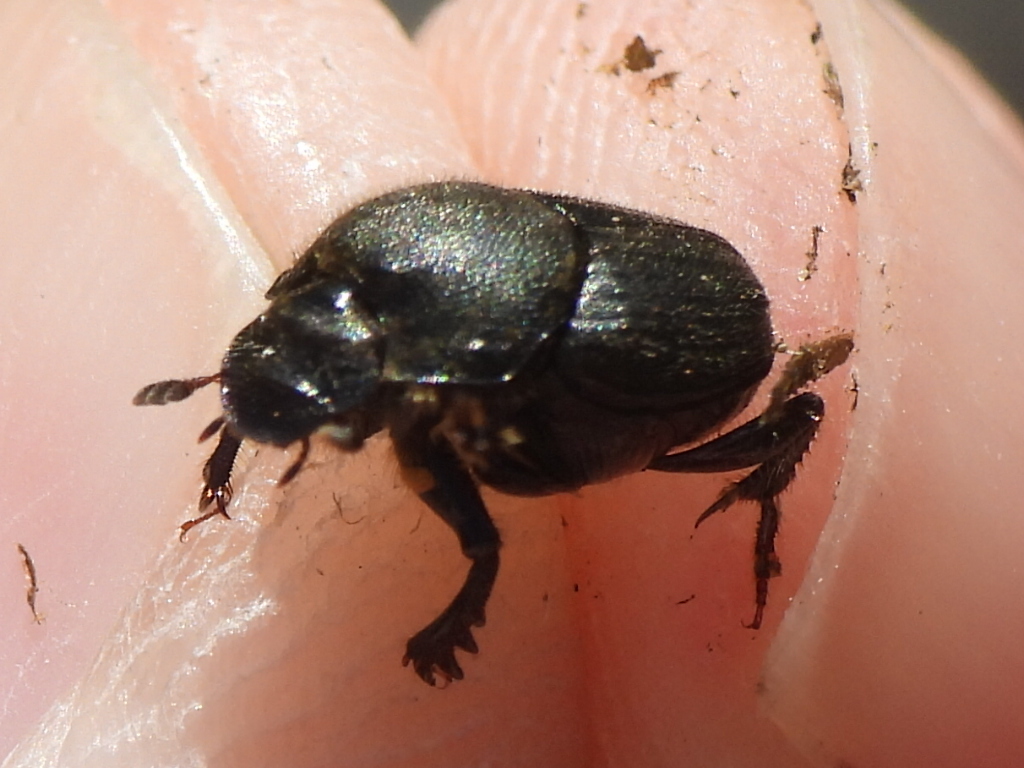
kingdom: Animalia
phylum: Arthropoda
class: Insecta
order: Coleoptera
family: Scarabaeidae
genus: Onthophagus
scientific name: Onthophagus hecate
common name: Scooped scarab
